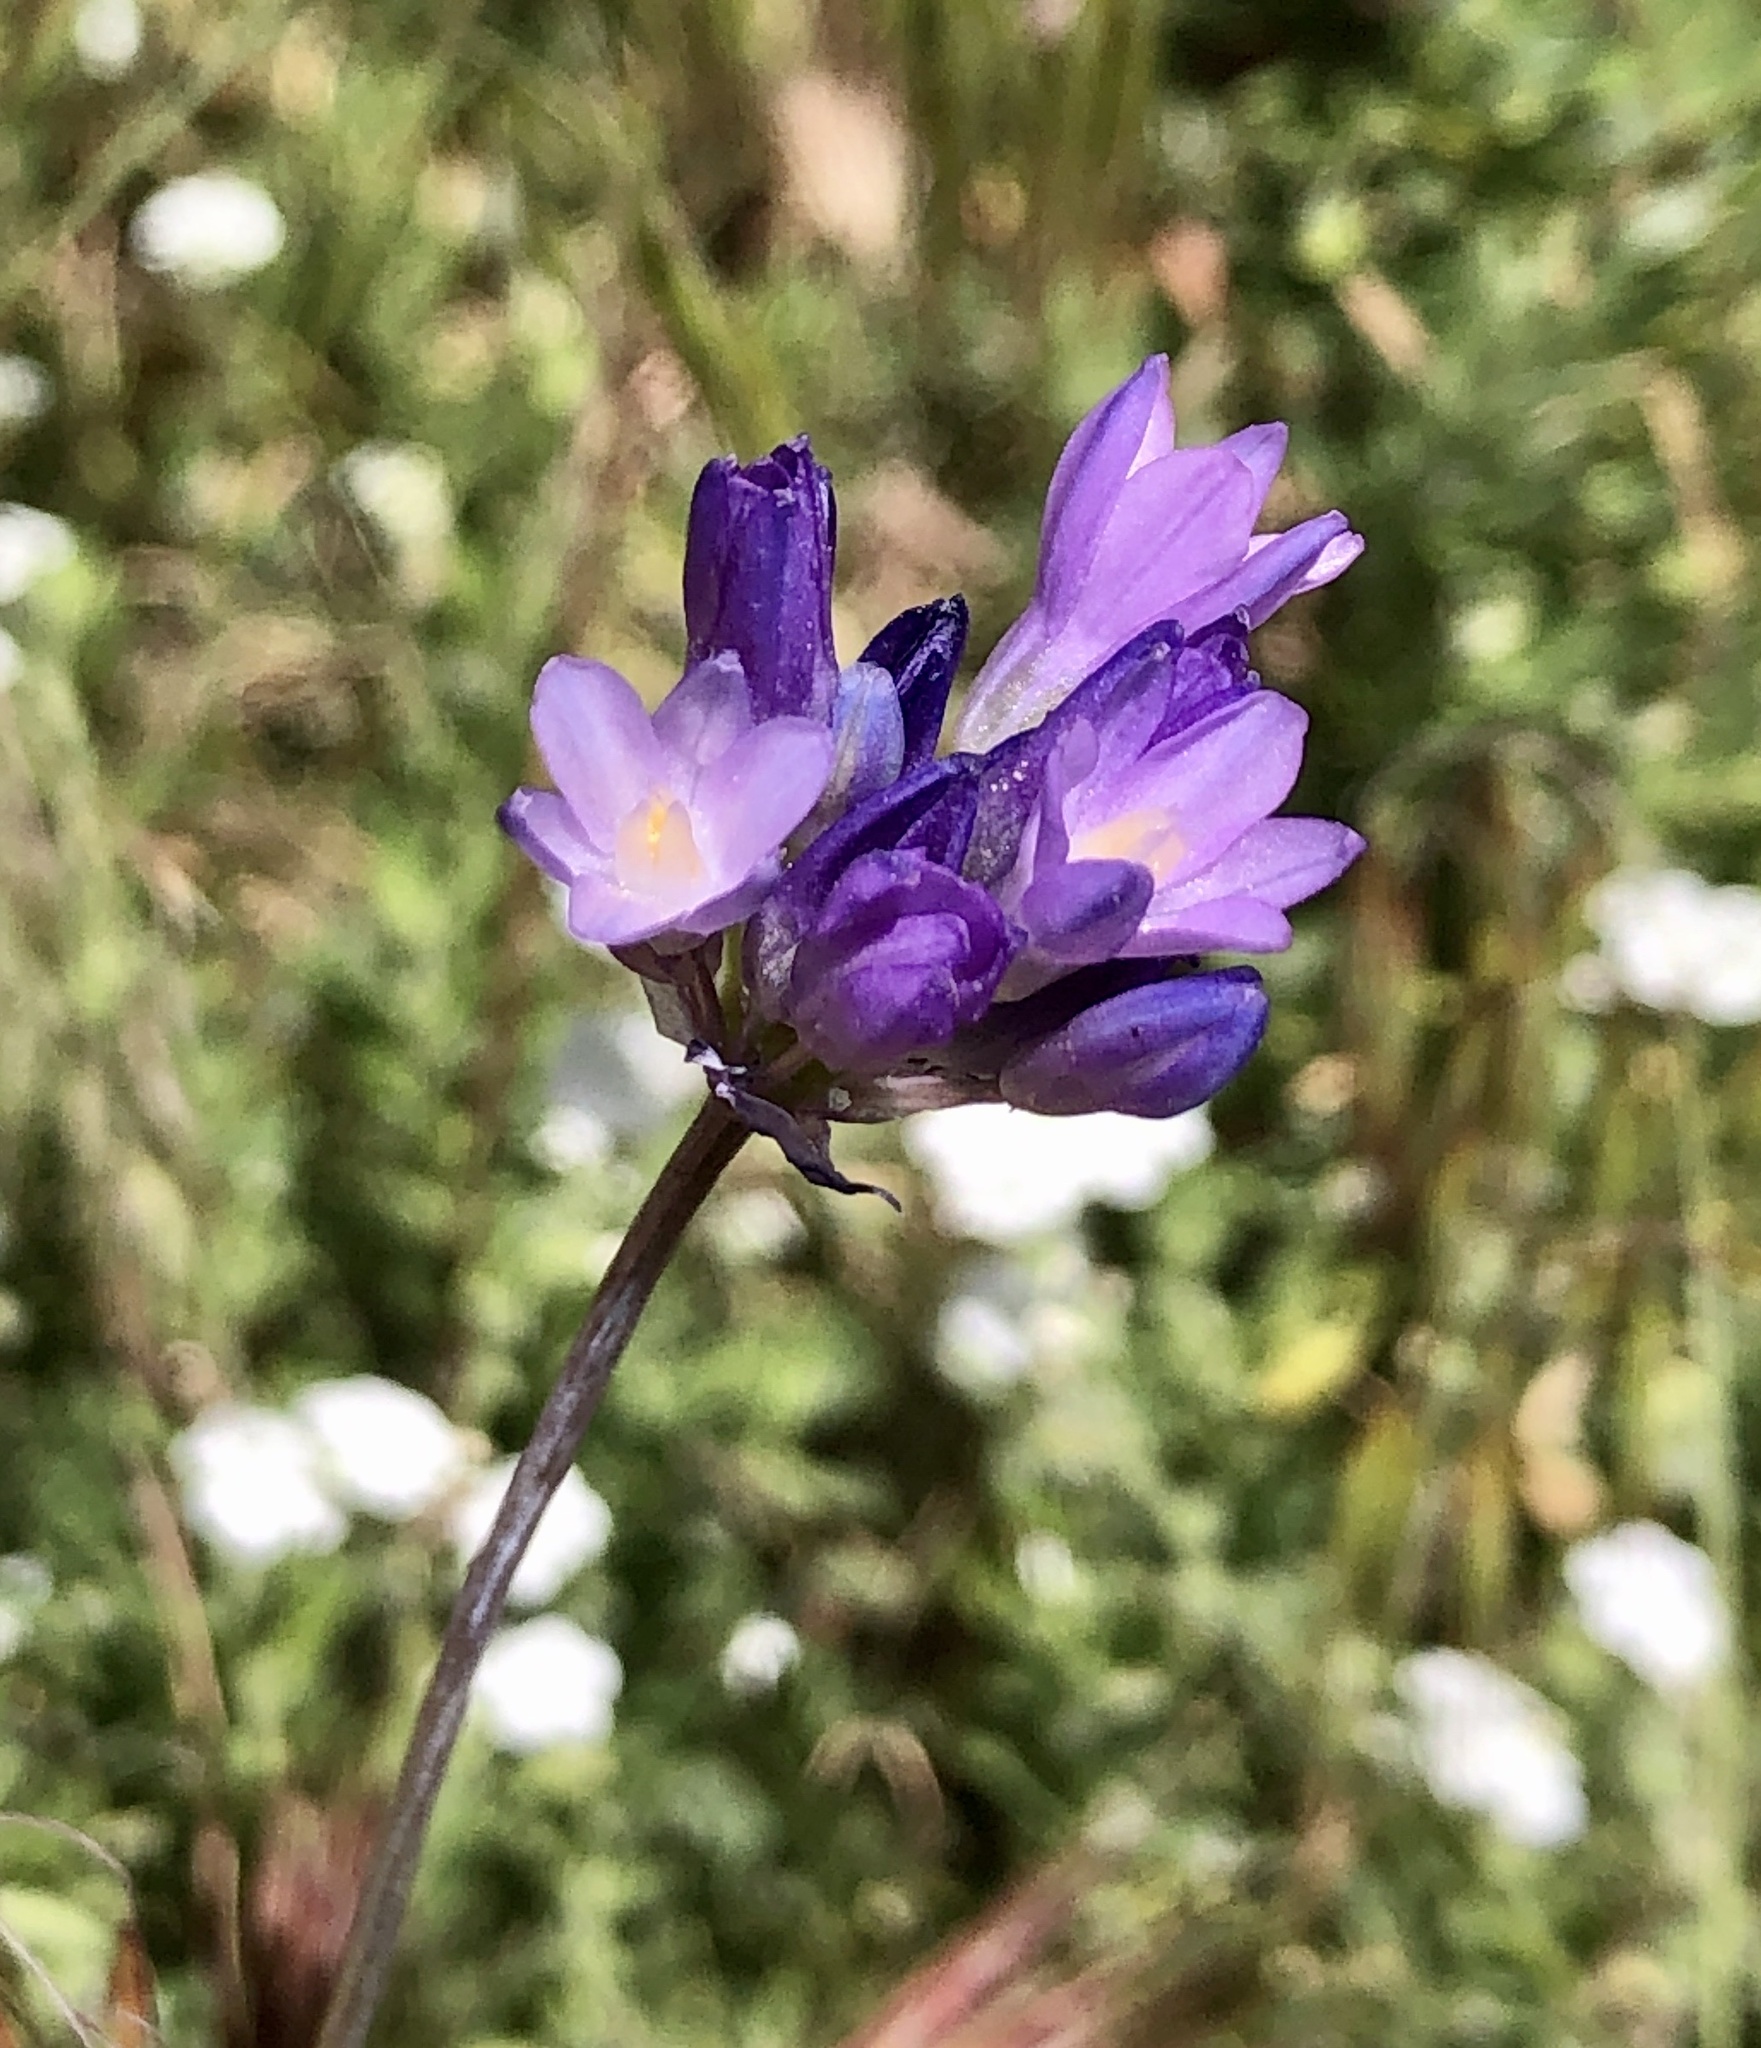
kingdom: Plantae
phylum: Tracheophyta
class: Liliopsida
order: Asparagales
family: Asparagaceae
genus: Dipterostemon
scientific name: Dipterostemon capitatus
